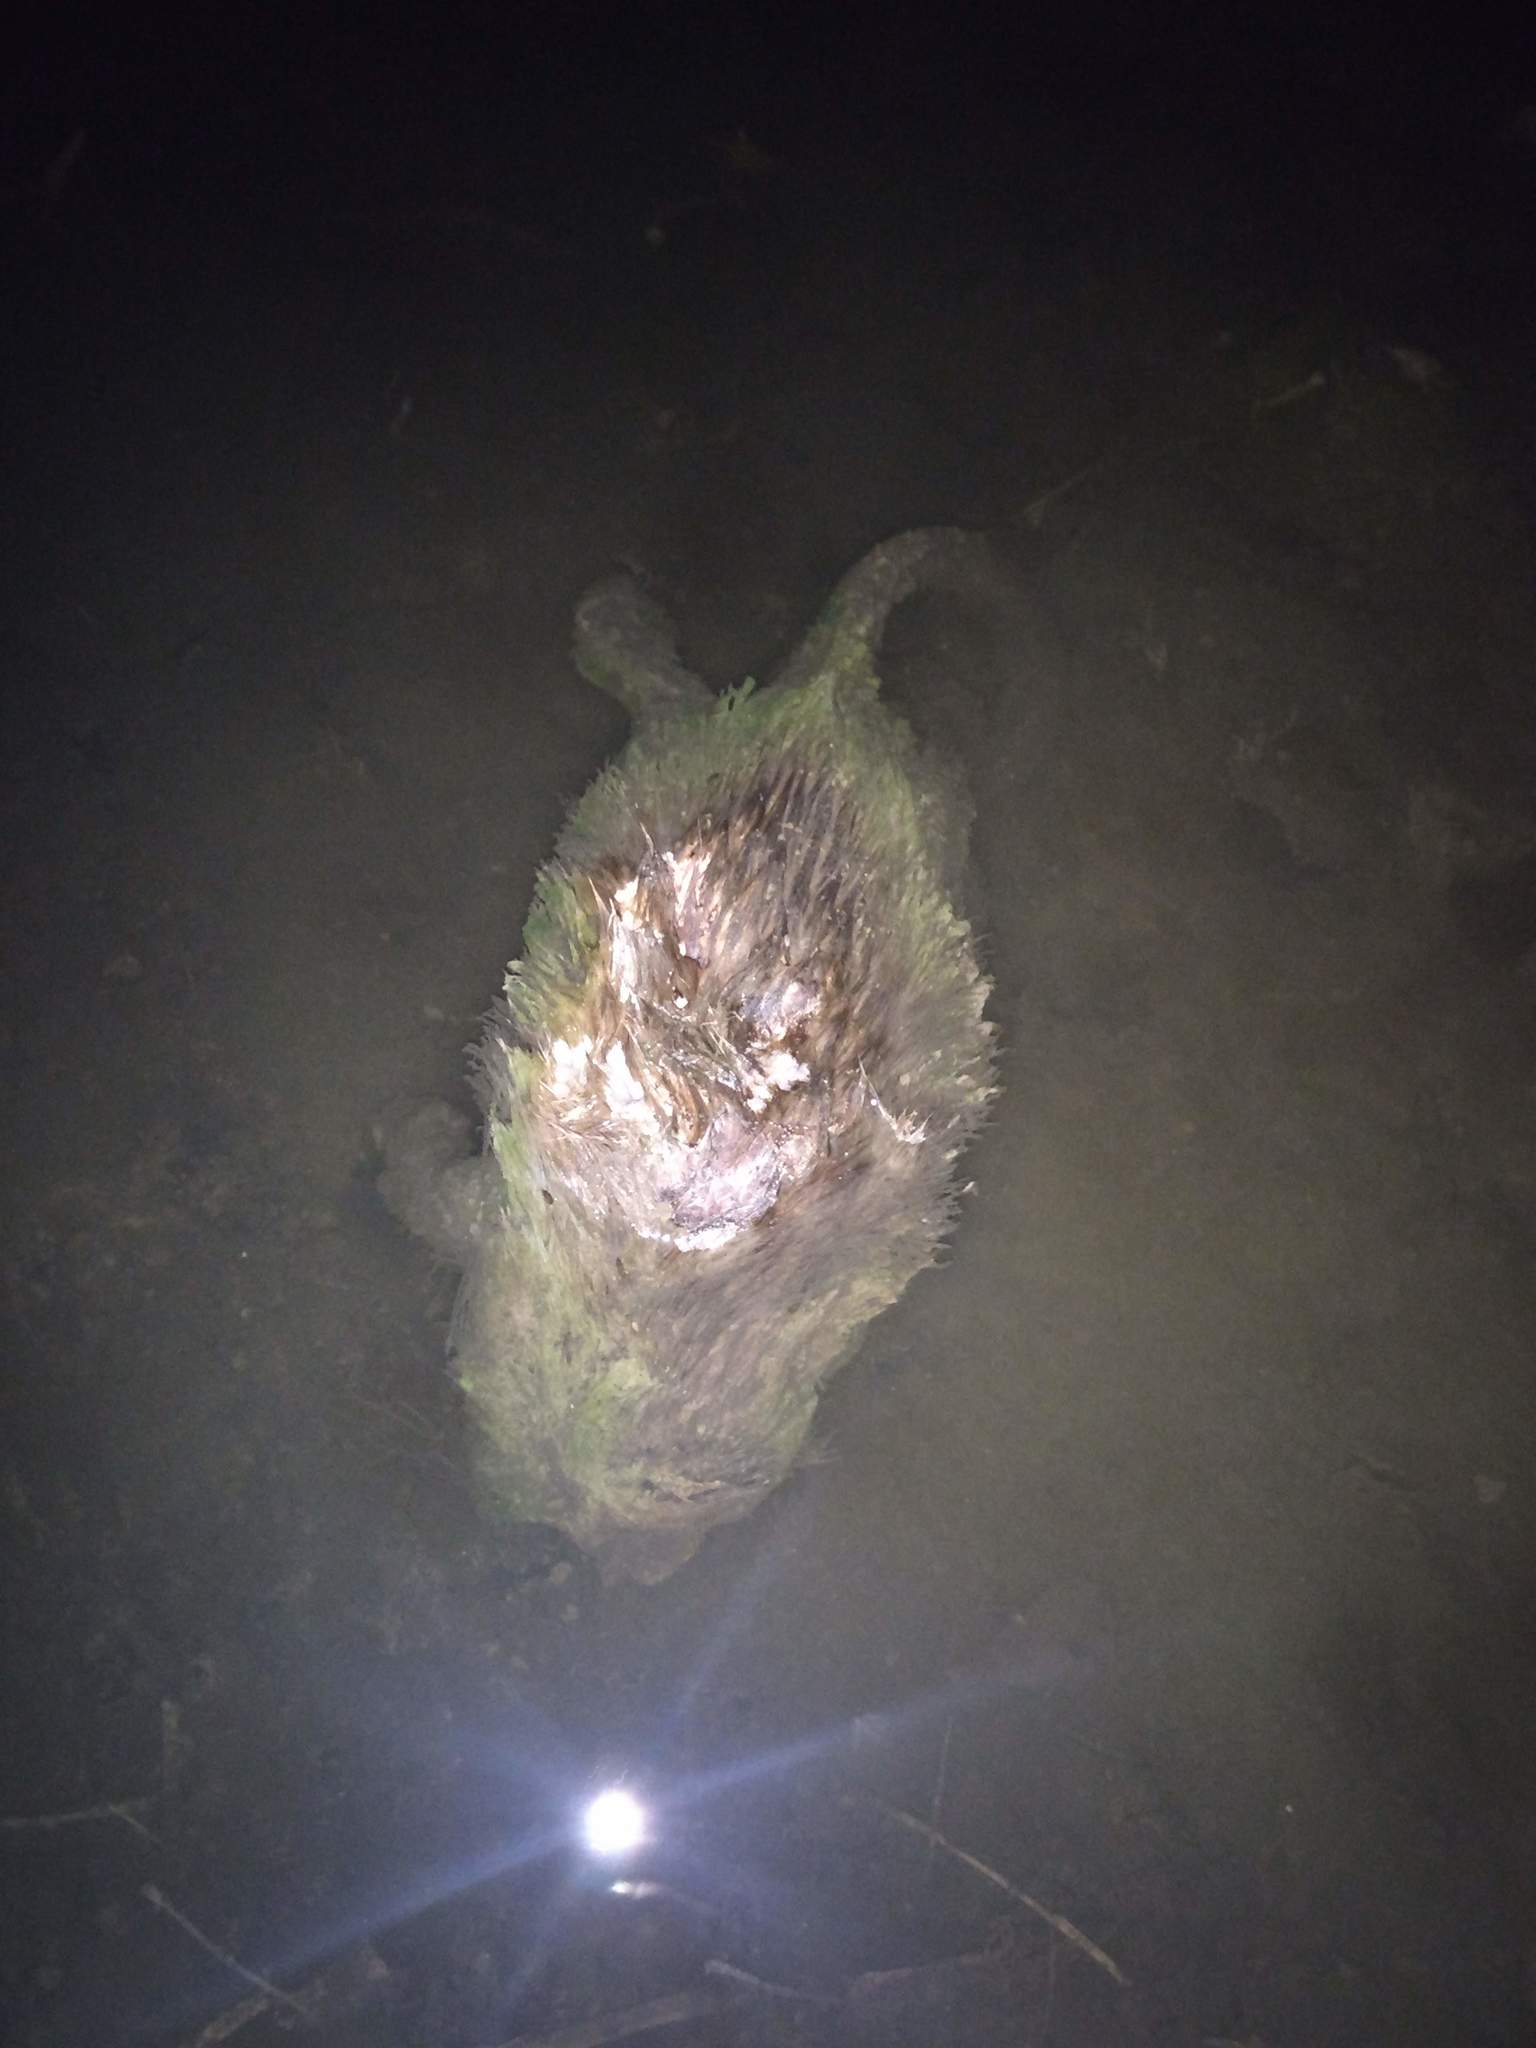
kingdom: Animalia
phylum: Chordata
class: Mammalia
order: Rodentia
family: Cricetidae
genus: Ondatra
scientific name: Ondatra zibethicus
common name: Muskrat
